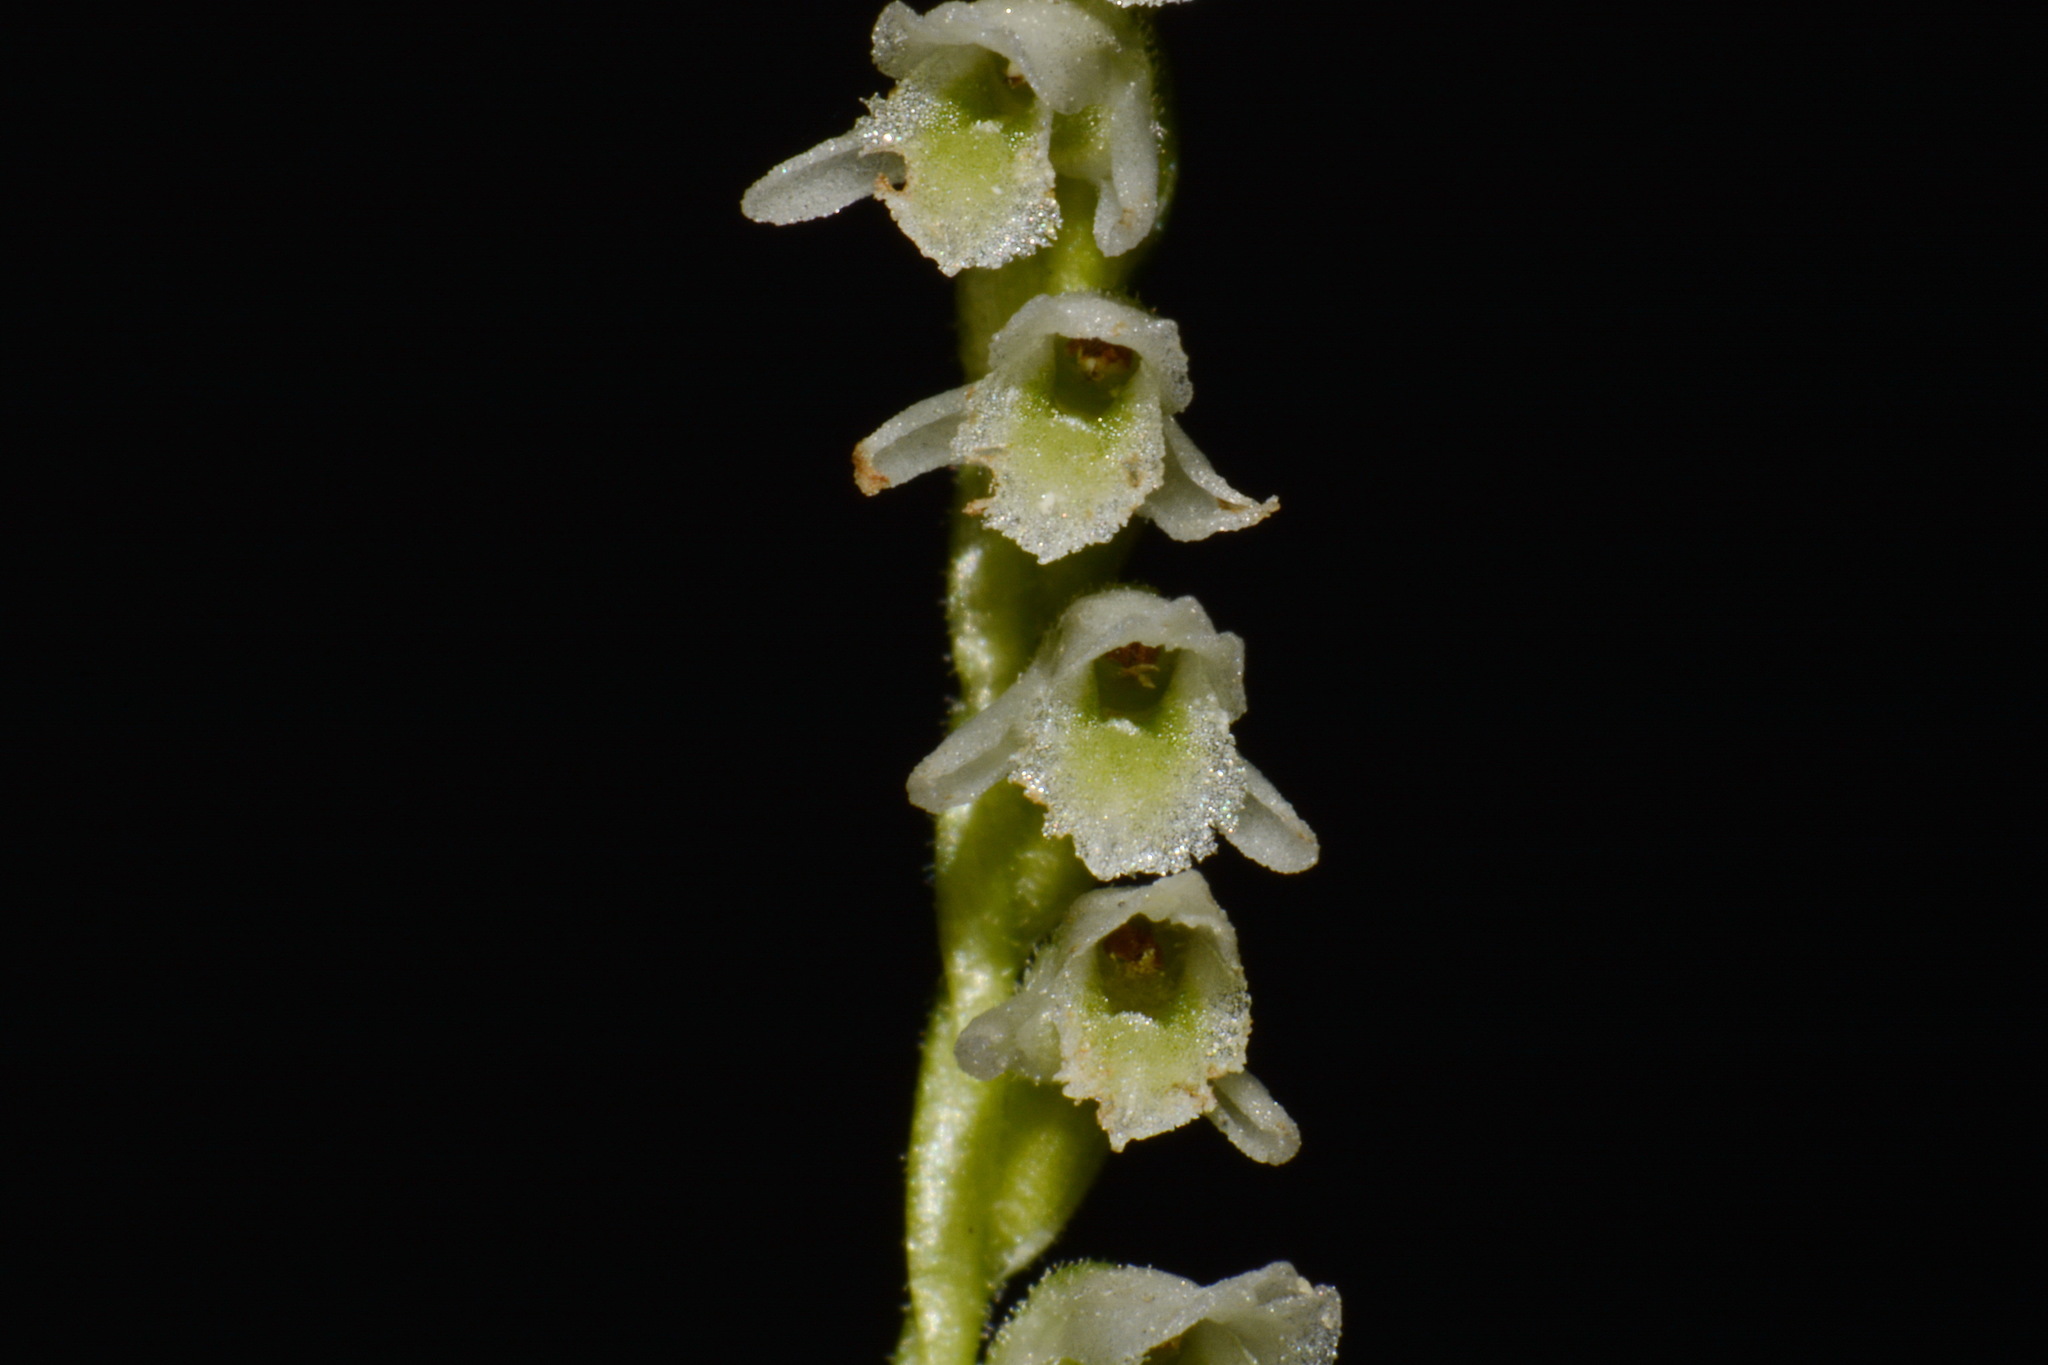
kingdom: Plantae
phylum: Tracheophyta
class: Liliopsida
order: Asparagales
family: Orchidaceae
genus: Spiranthes
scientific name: Spiranthes lacera
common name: Northern slender ladies'-tresses
